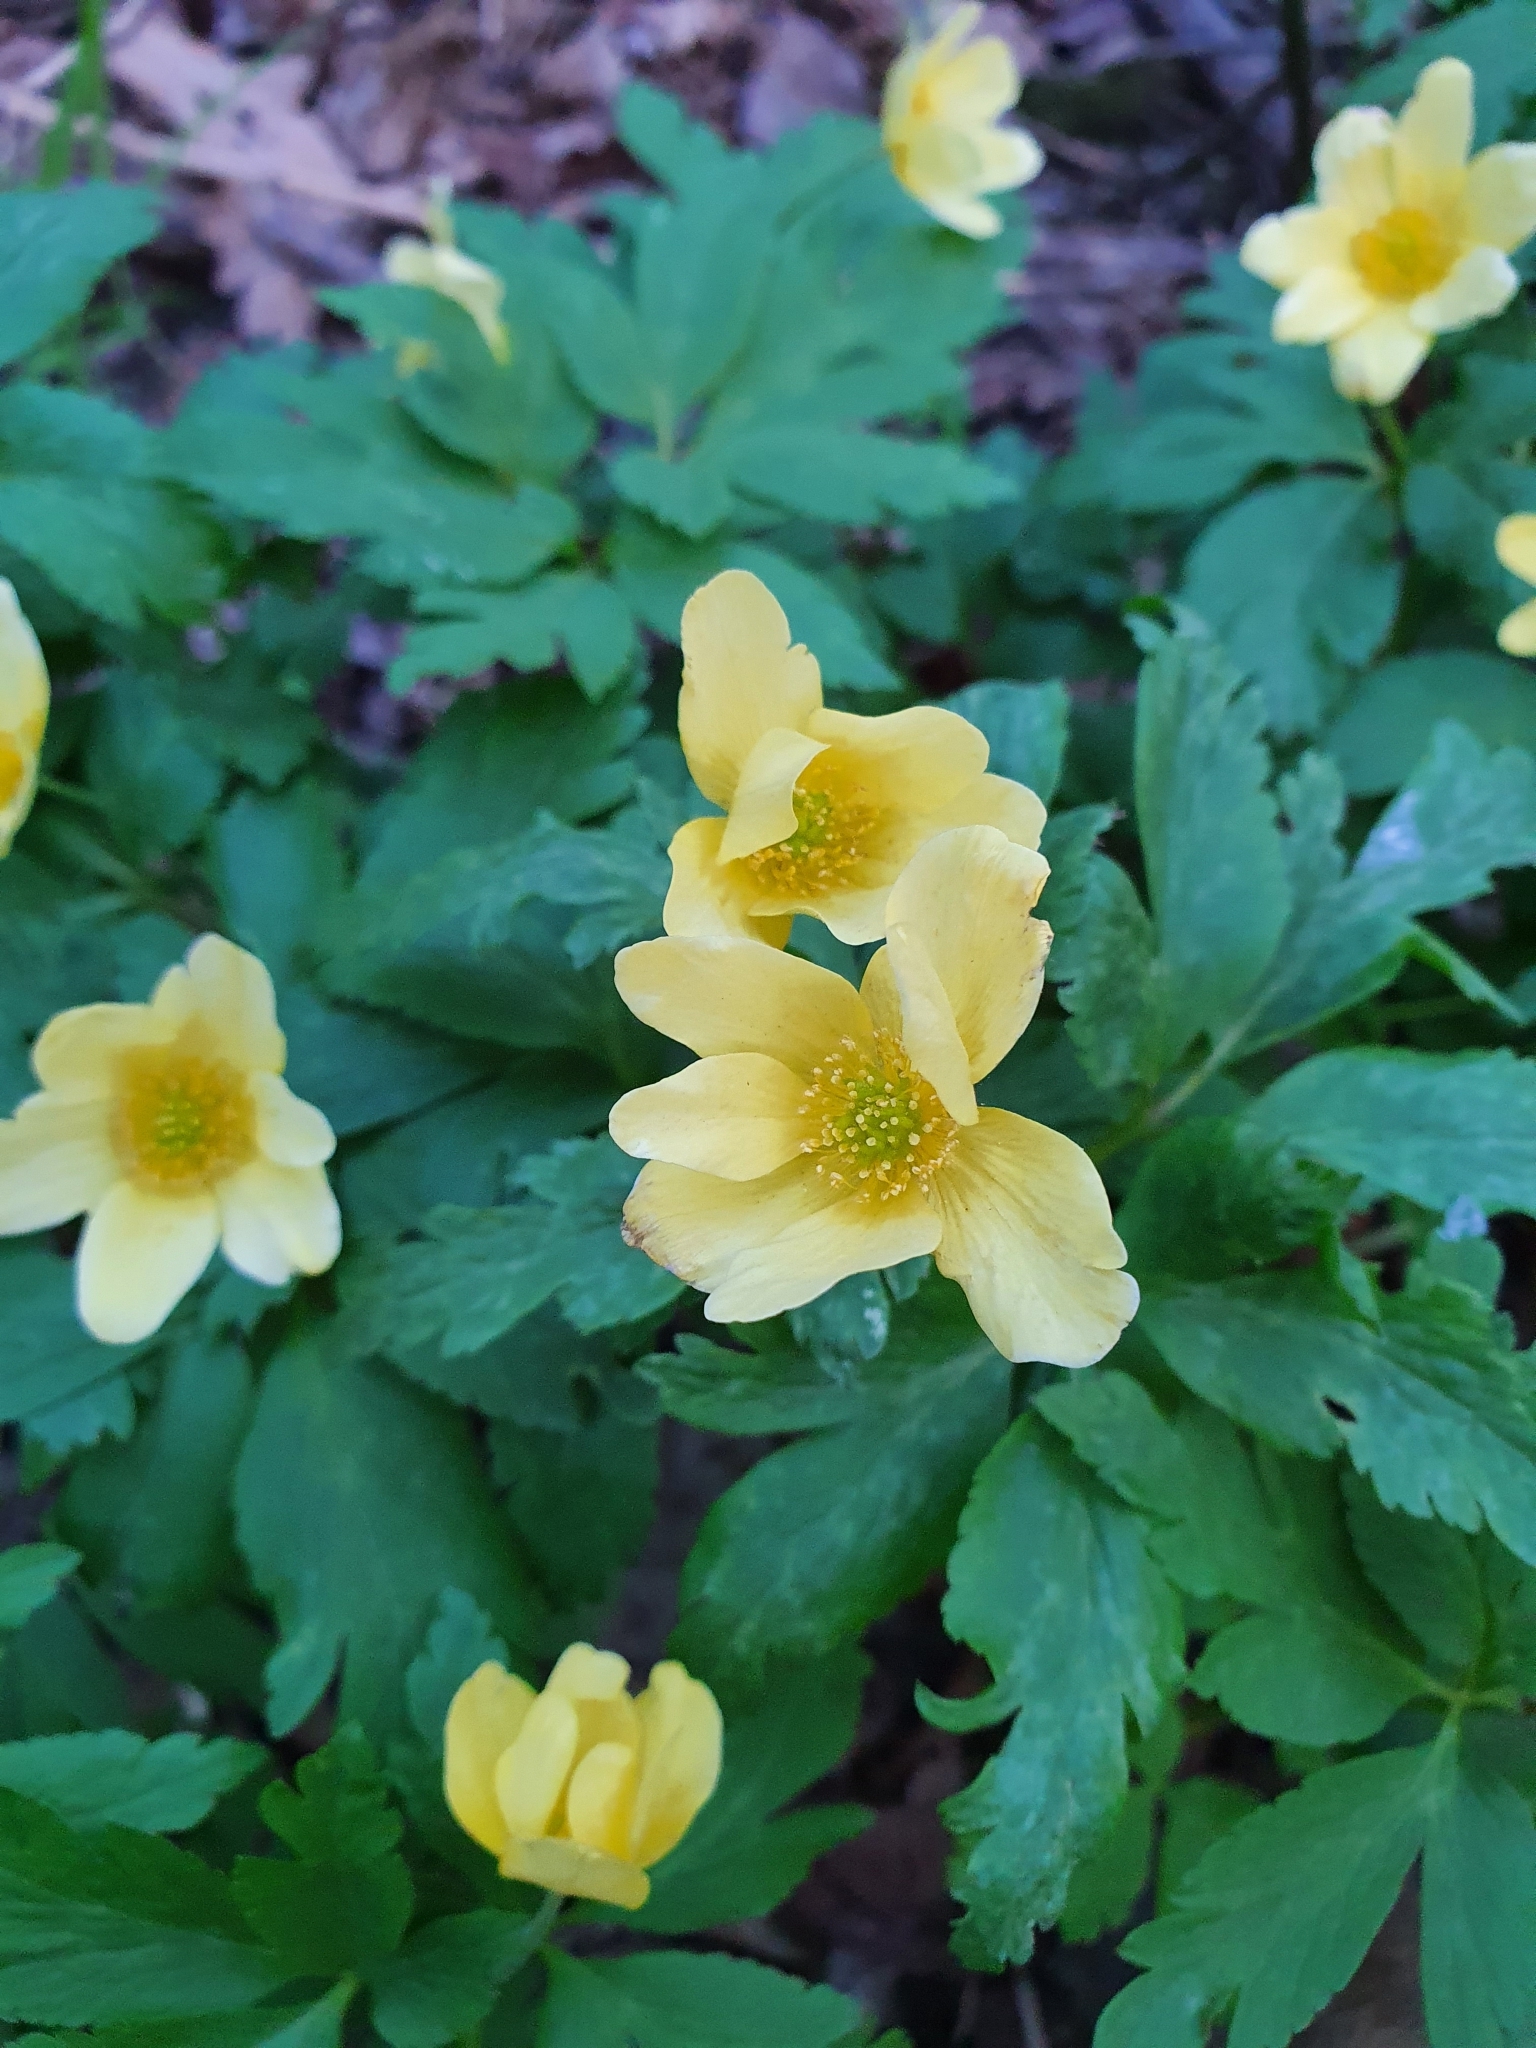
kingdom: Plantae
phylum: Tracheophyta
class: Magnoliopsida
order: Ranunculales
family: Ranunculaceae
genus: Anemone
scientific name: Anemone korzchinskyi
